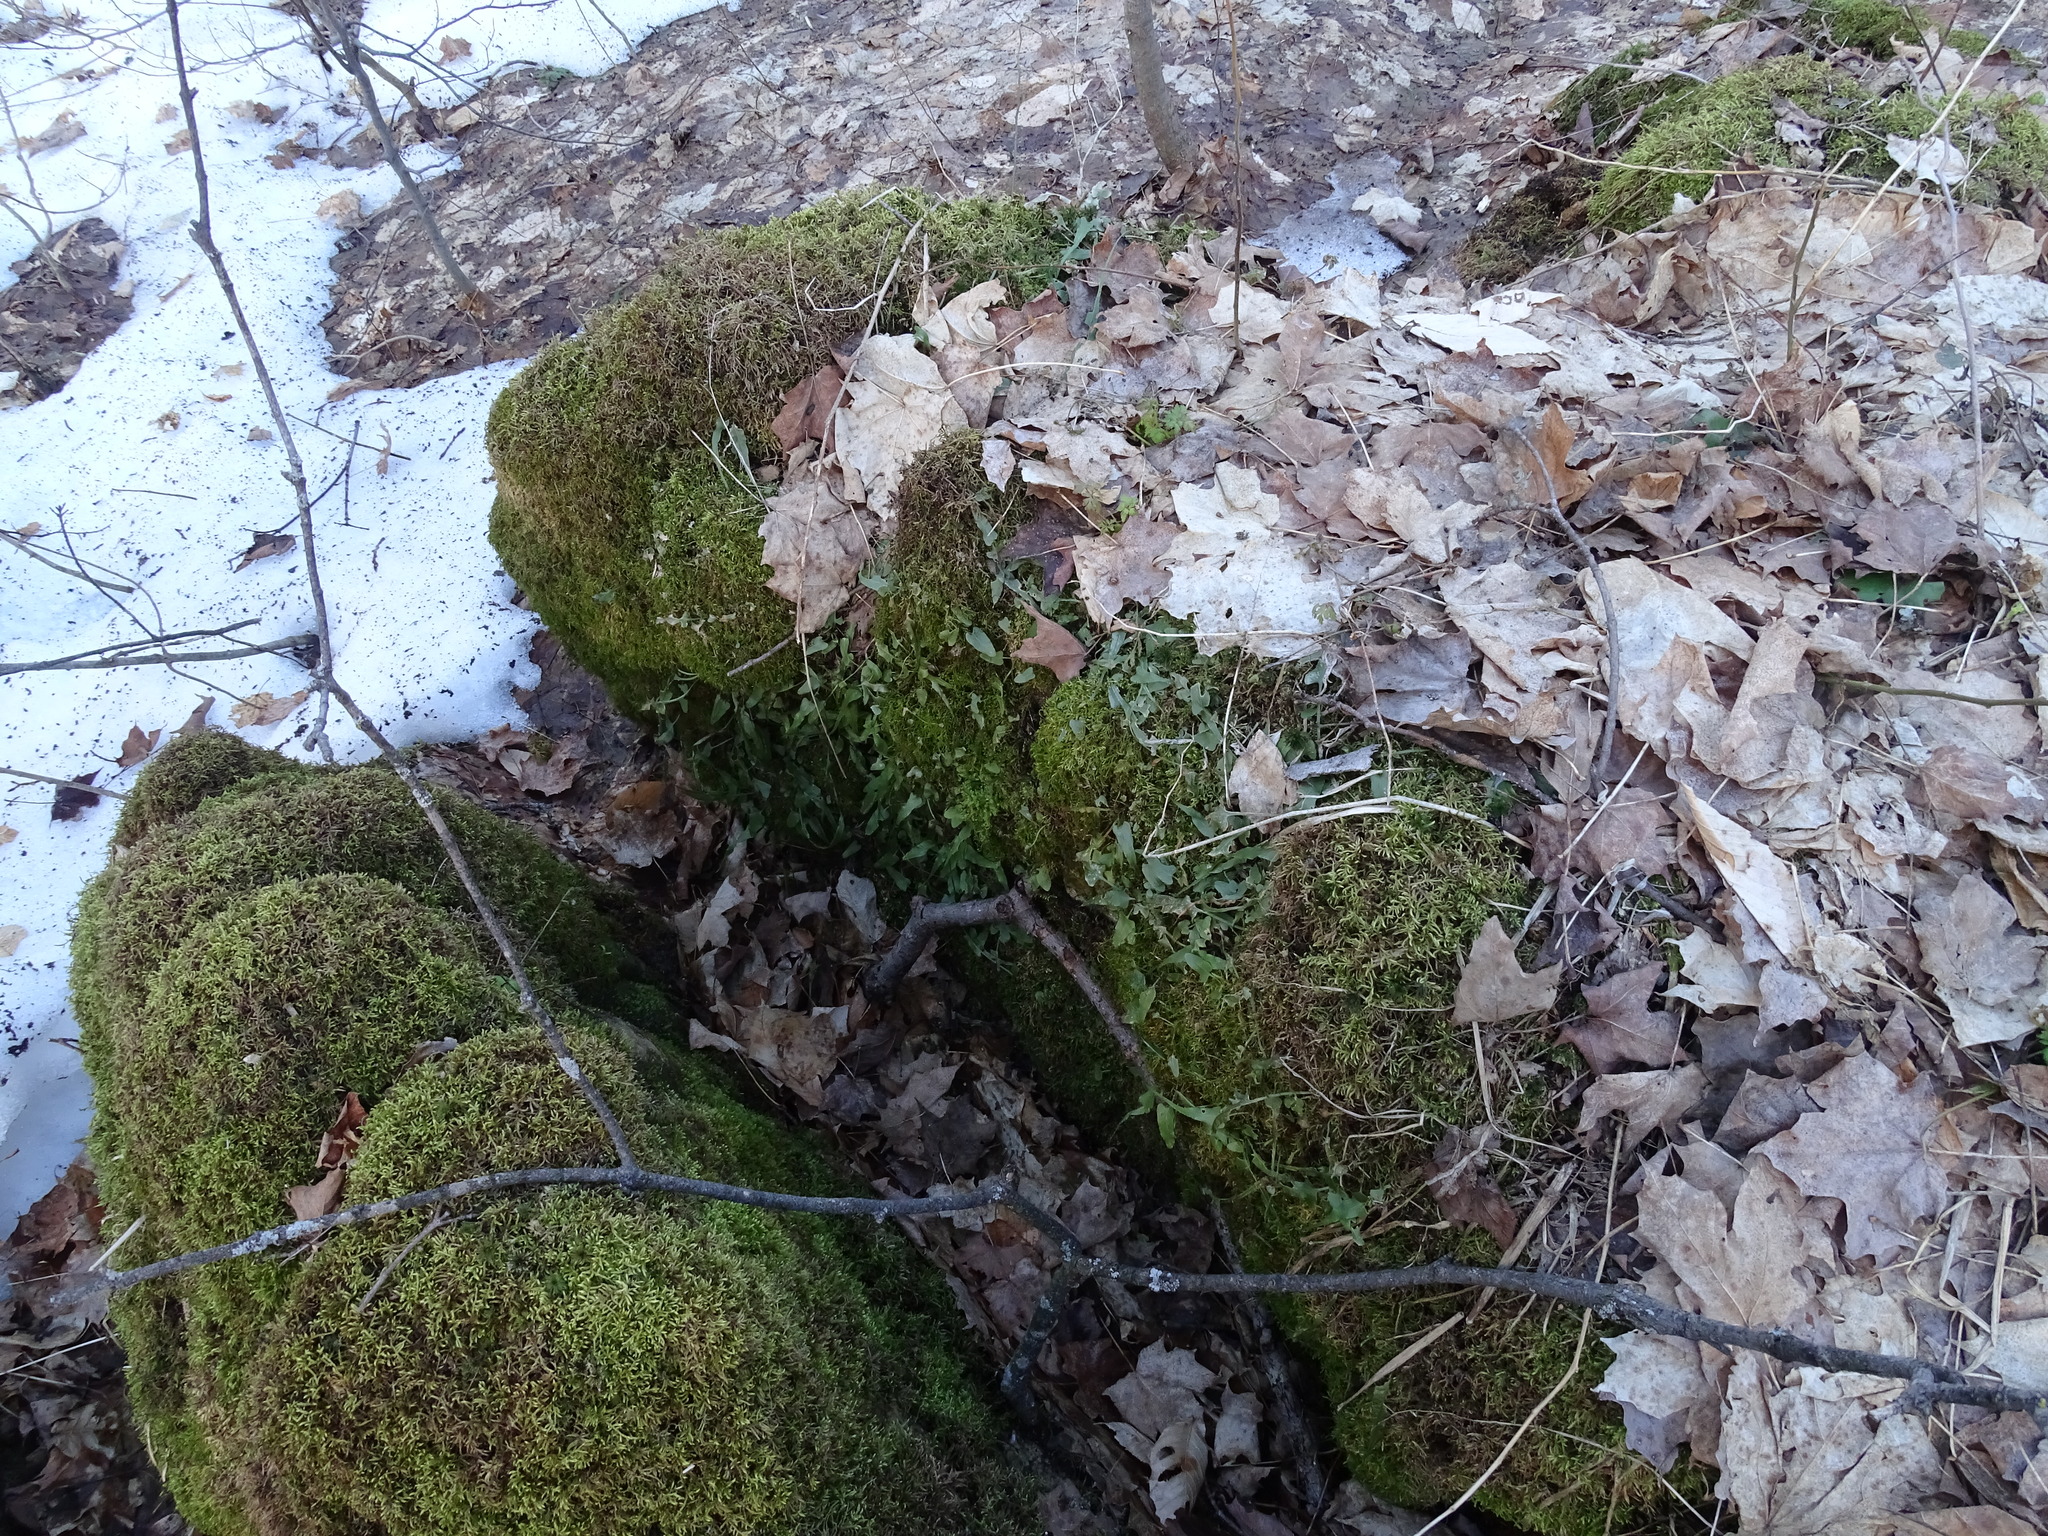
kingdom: Plantae
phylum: Tracheophyta
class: Polypodiopsida
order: Polypodiales
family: Aspleniaceae
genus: Asplenium
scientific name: Asplenium rhizophyllum
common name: Walking fern
